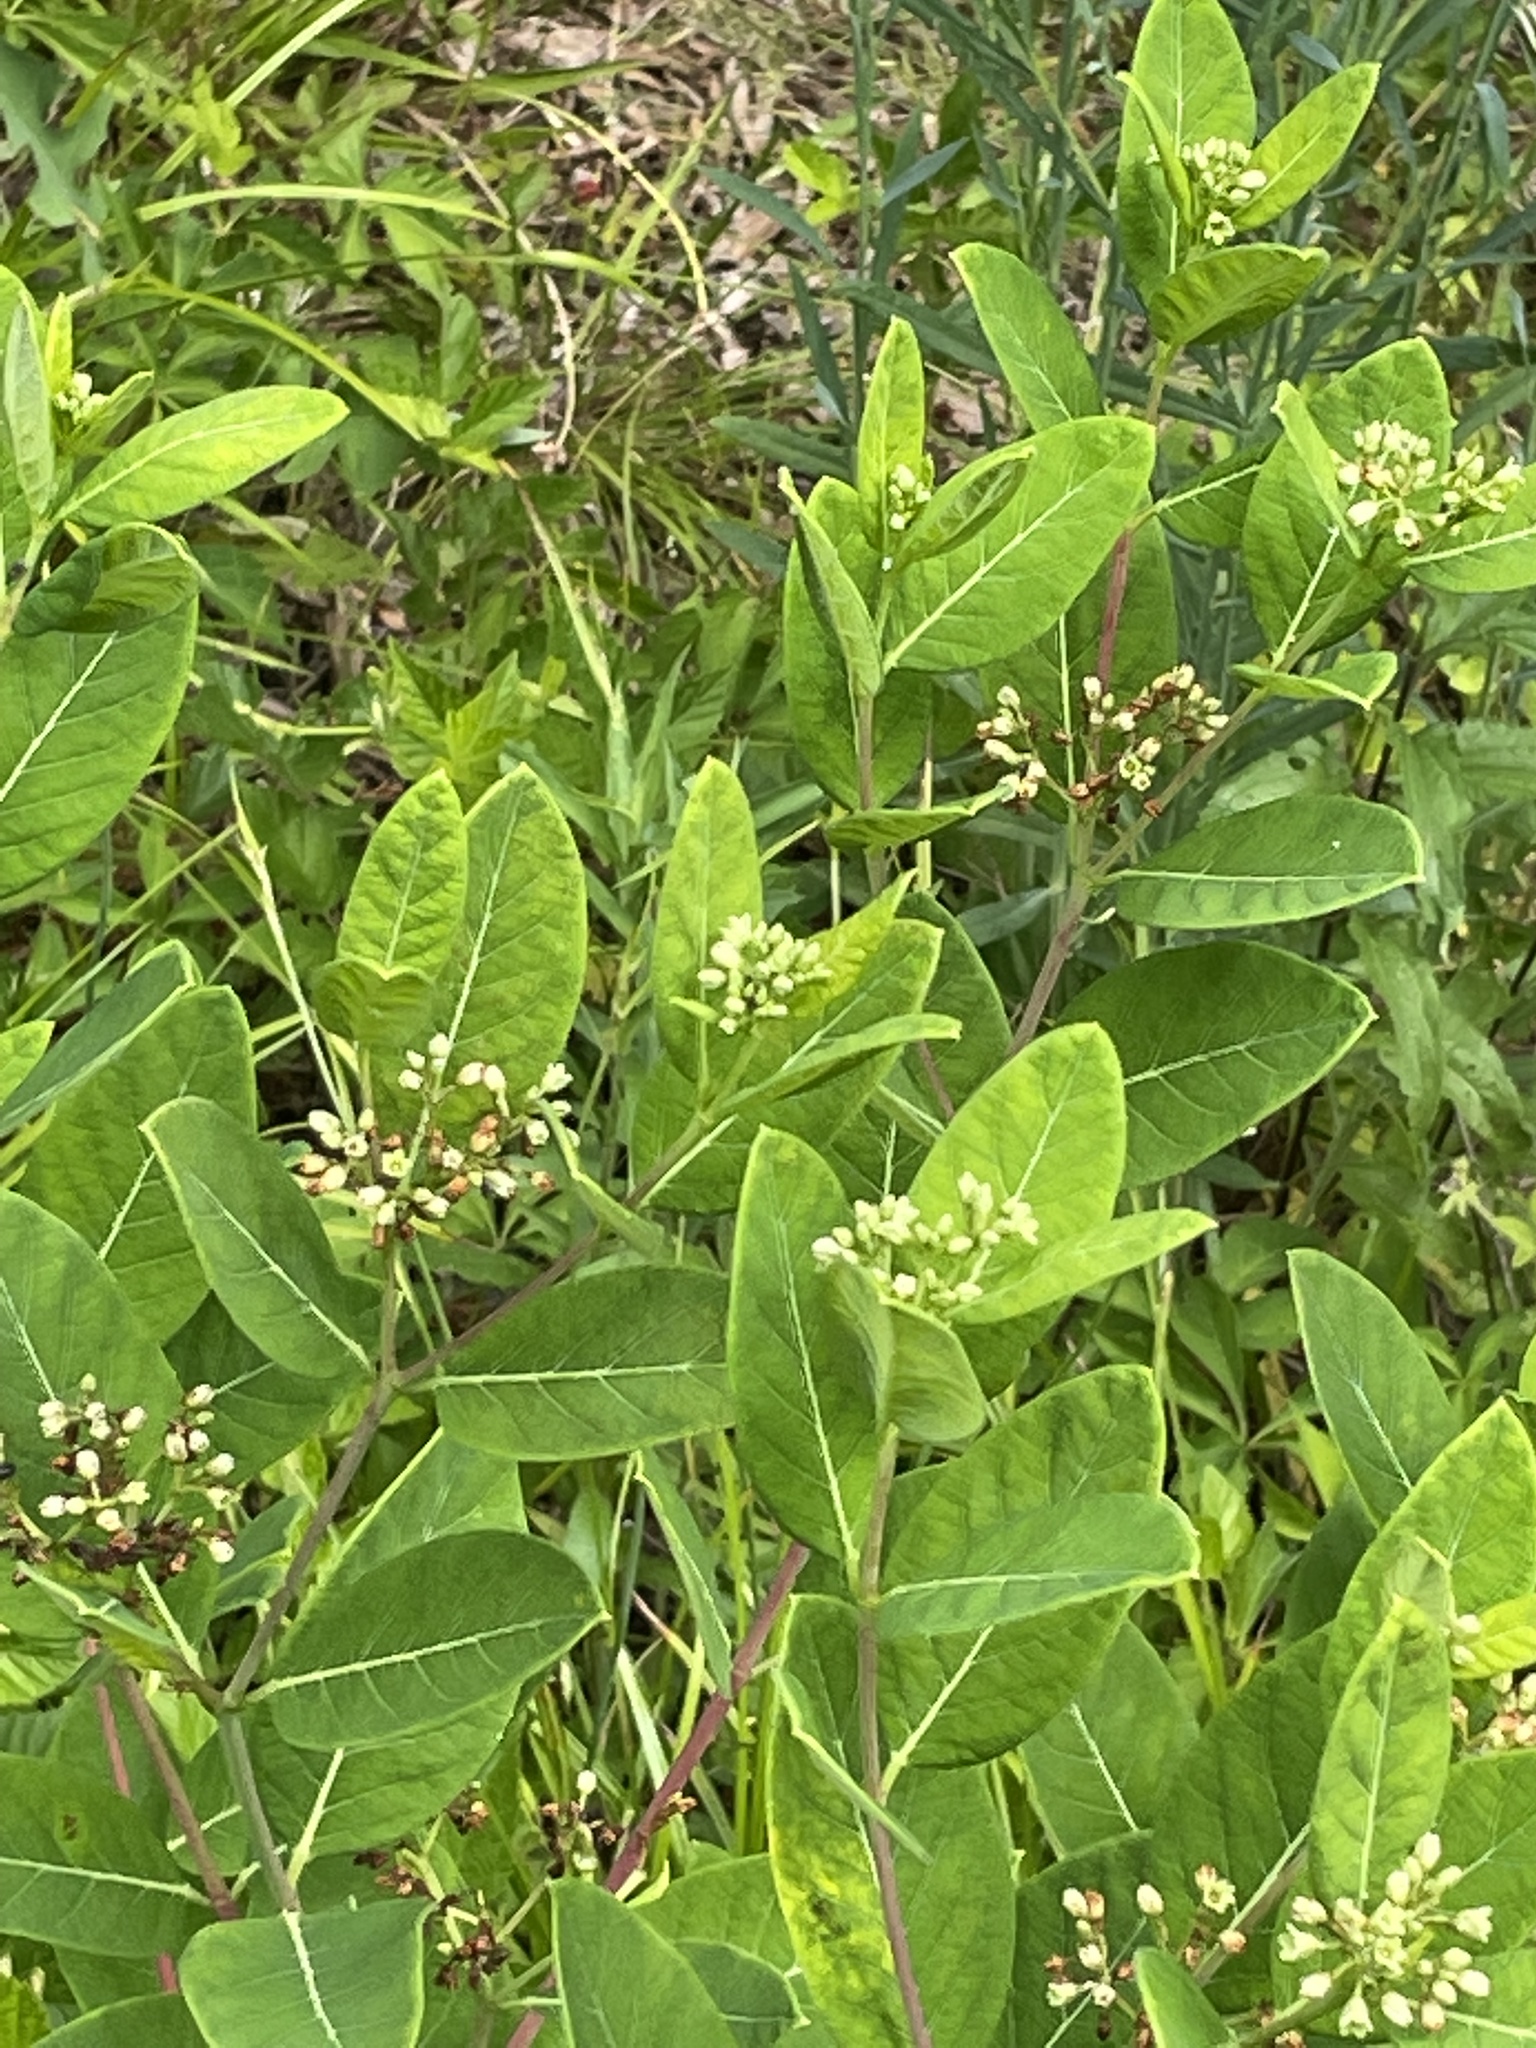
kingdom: Plantae
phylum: Tracheophyta
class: Magnoliopsida
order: Gentianales
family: Apocynaceae
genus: Apocynum
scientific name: Apocynum cannabinum
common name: Hemp dogbane
